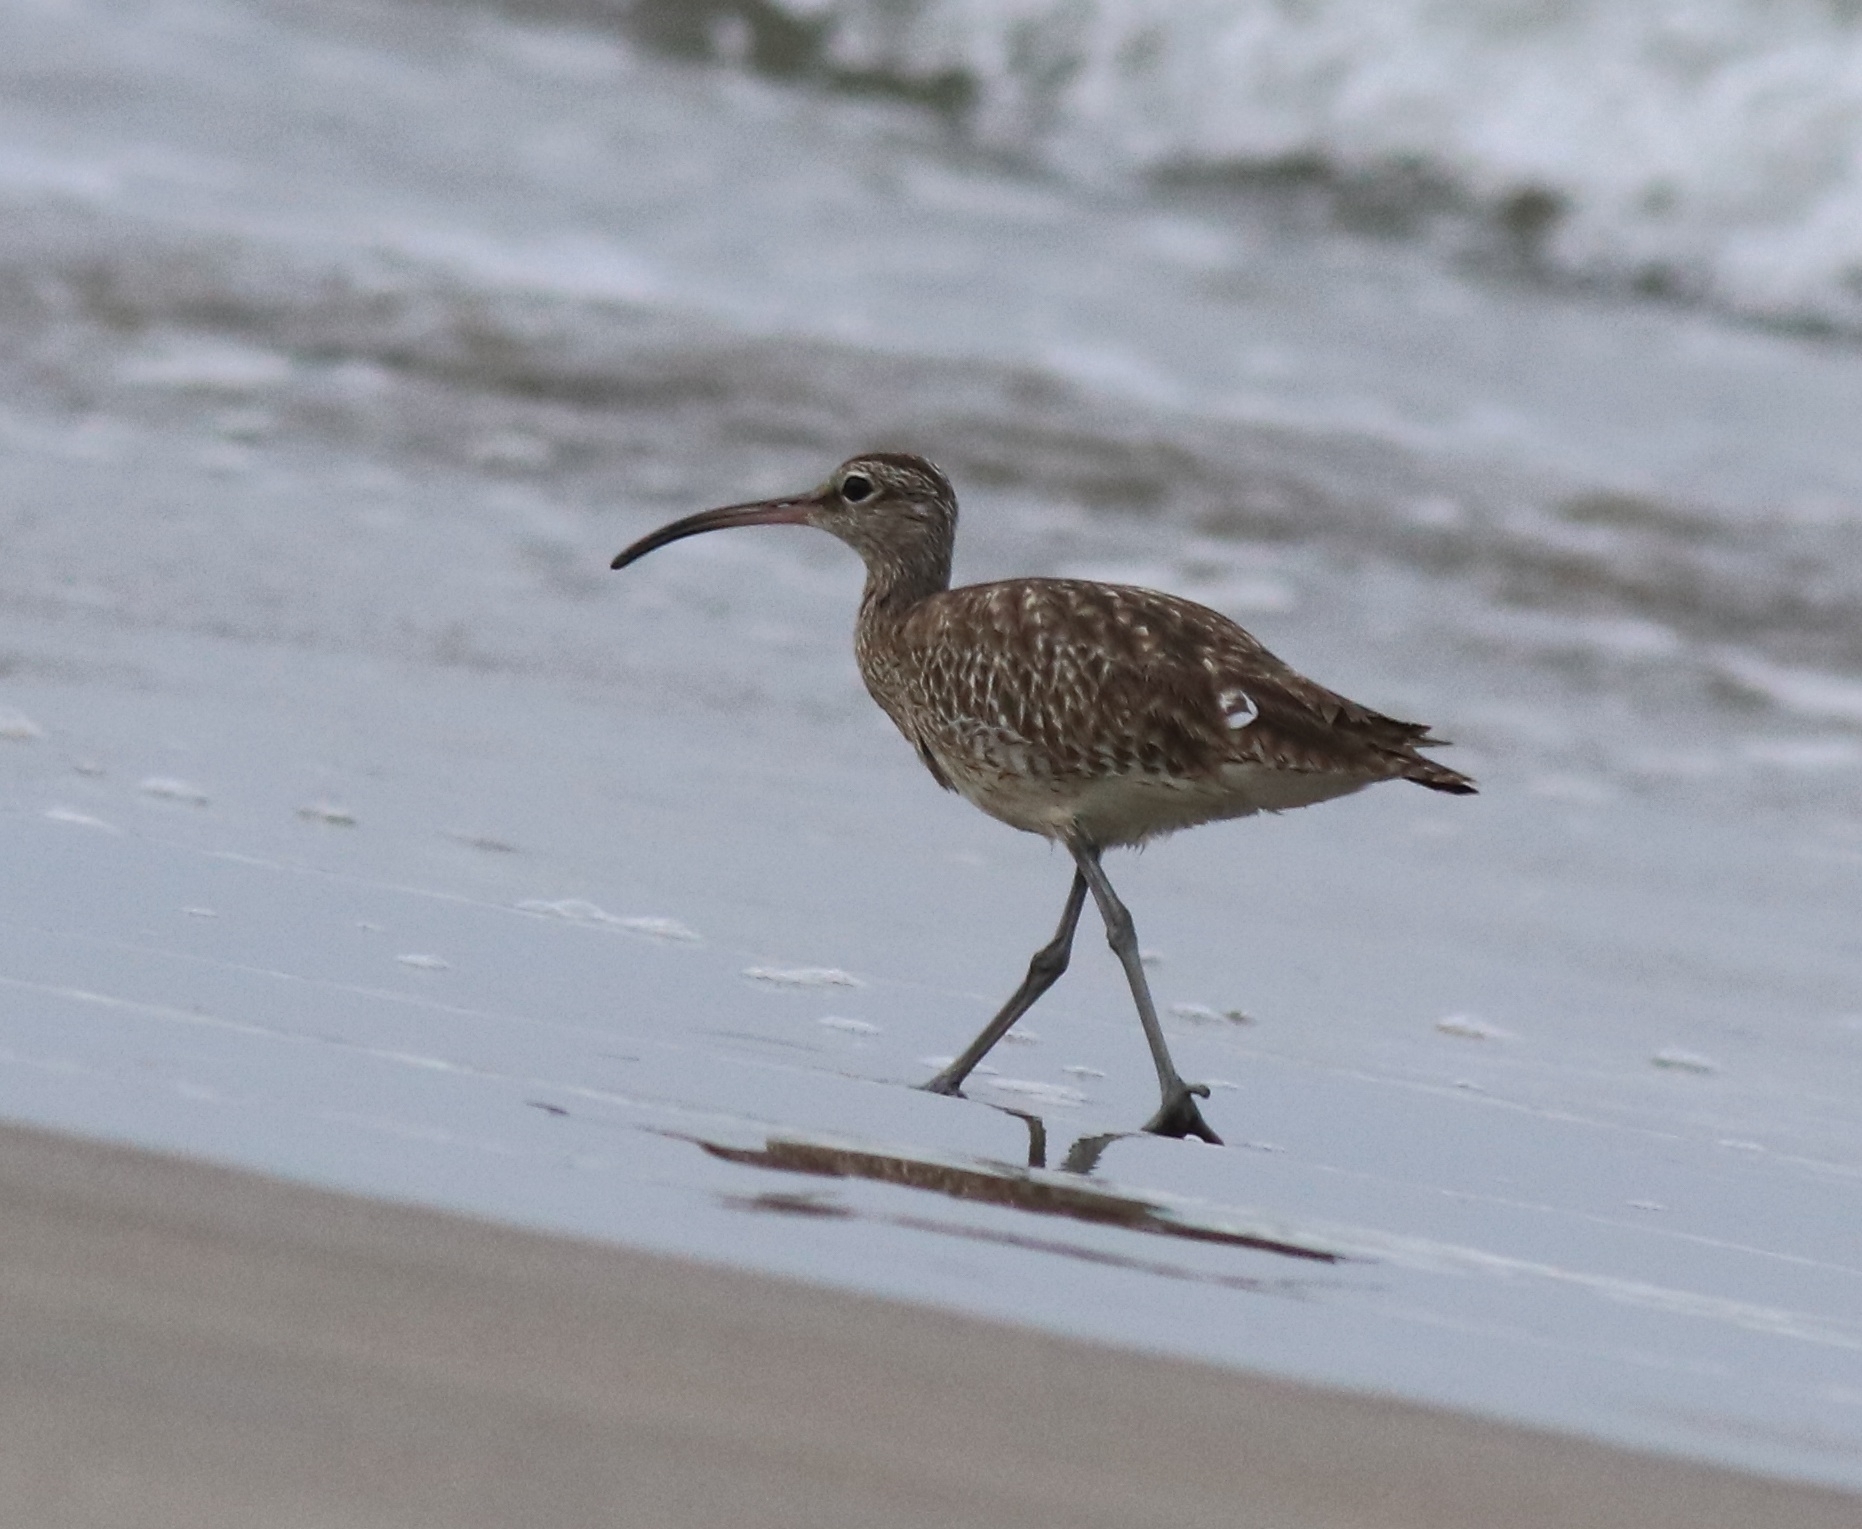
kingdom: Animalia
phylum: Chordata
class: Aves
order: Charadriiformes
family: Scolopacidae
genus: Numenius
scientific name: Numenius phaeopus
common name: Whimbrel
